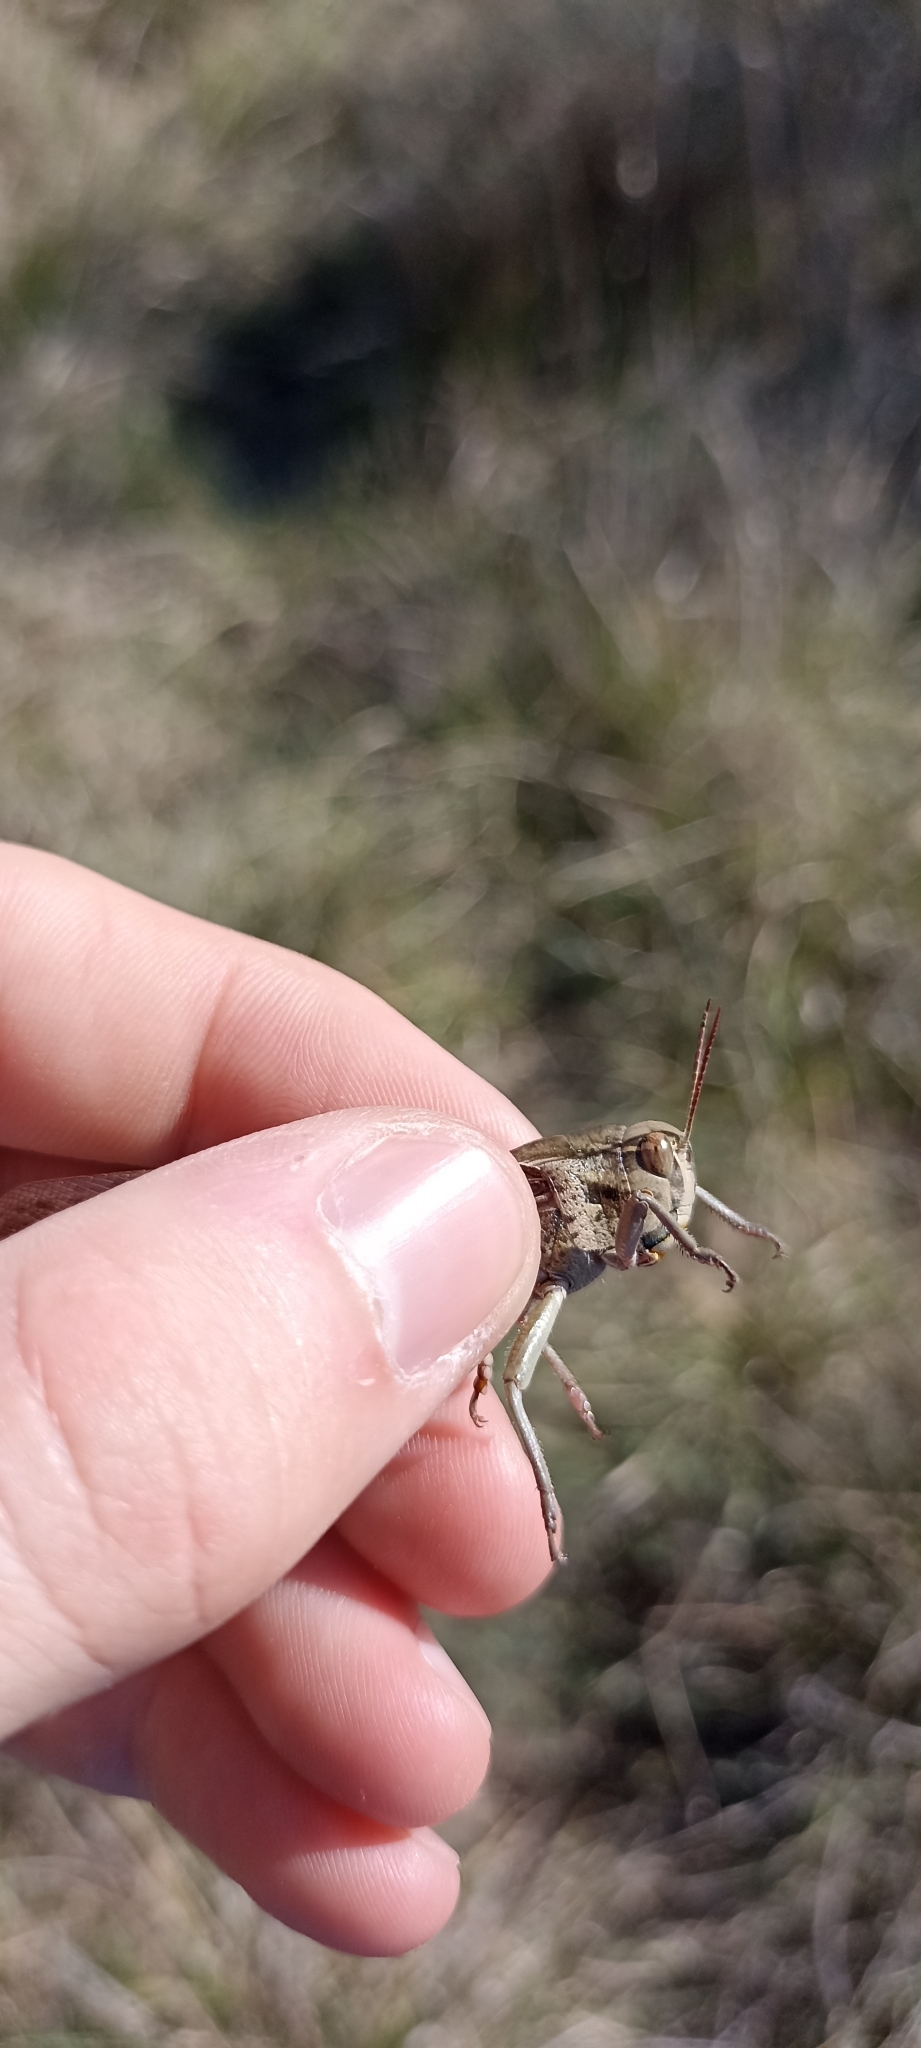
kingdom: Animalia
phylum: Arthropoda
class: Insecta
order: Orthoptera
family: Acrididae
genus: Locusta
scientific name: Locusta migratoria
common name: Migratory locust
